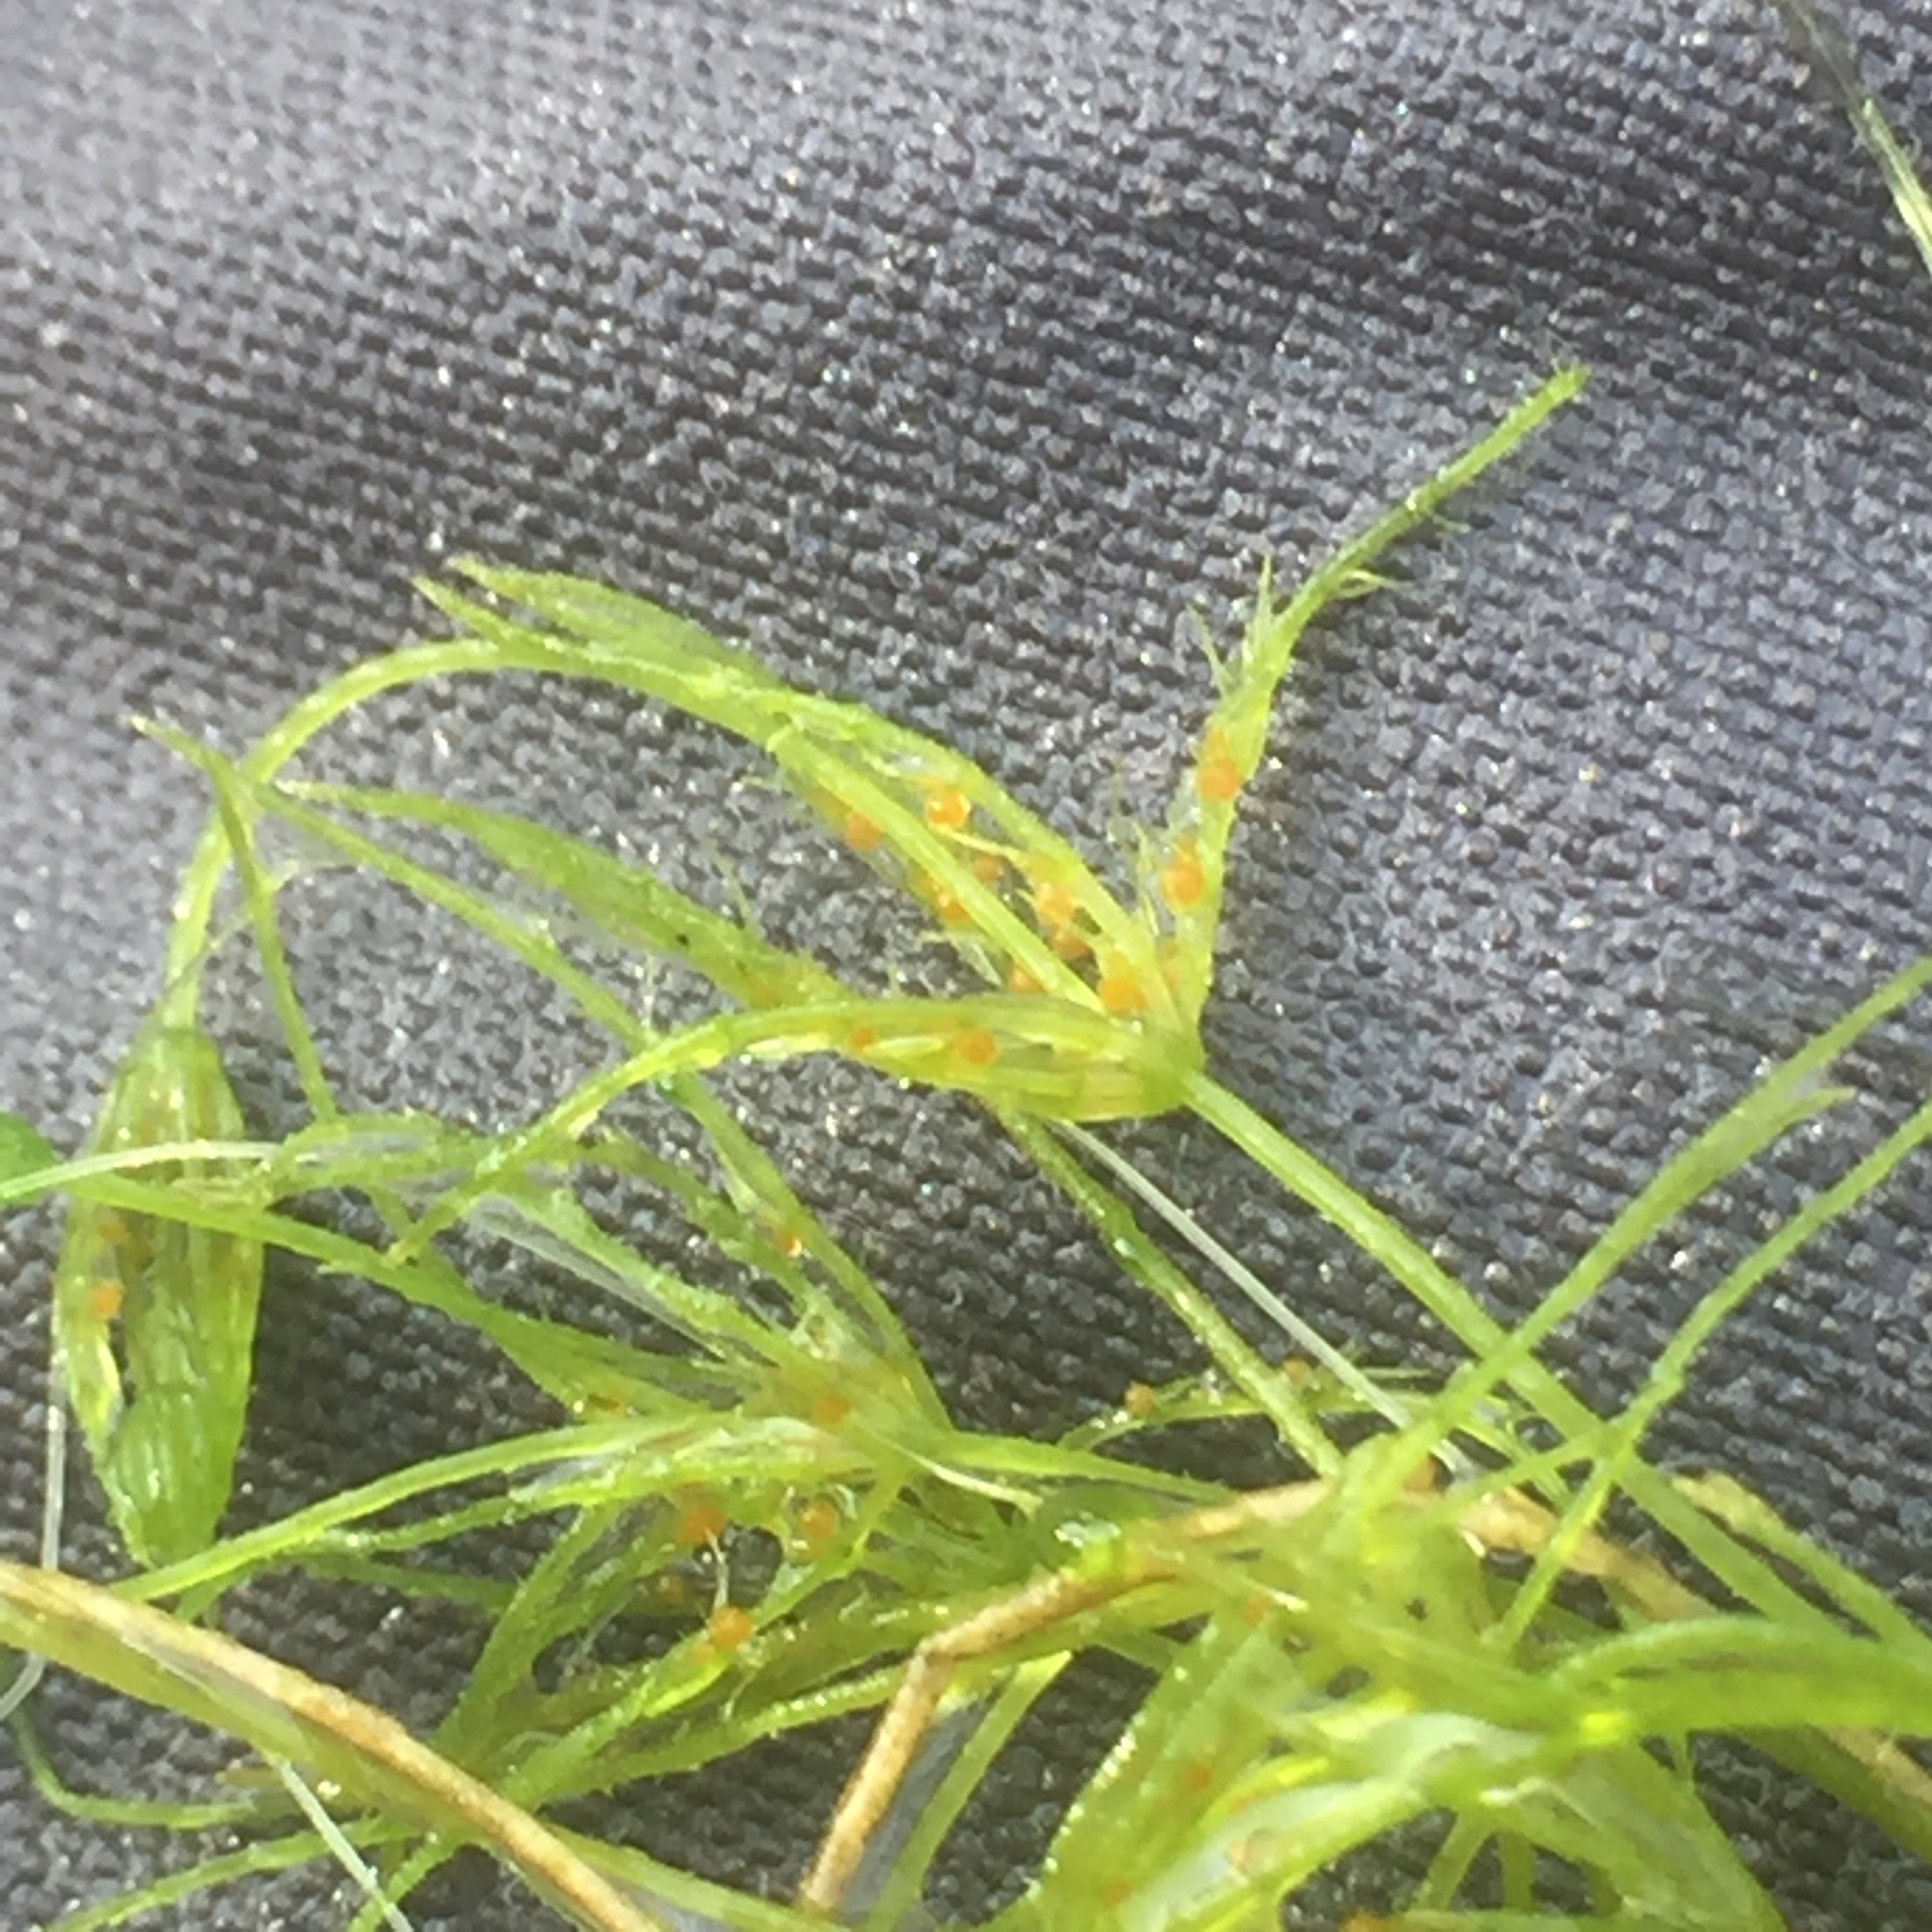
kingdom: Plantae
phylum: Charophyta
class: Charophyceae
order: Charales
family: Characeae
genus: Chara
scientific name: Chara virgata
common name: Delicate stonewort
